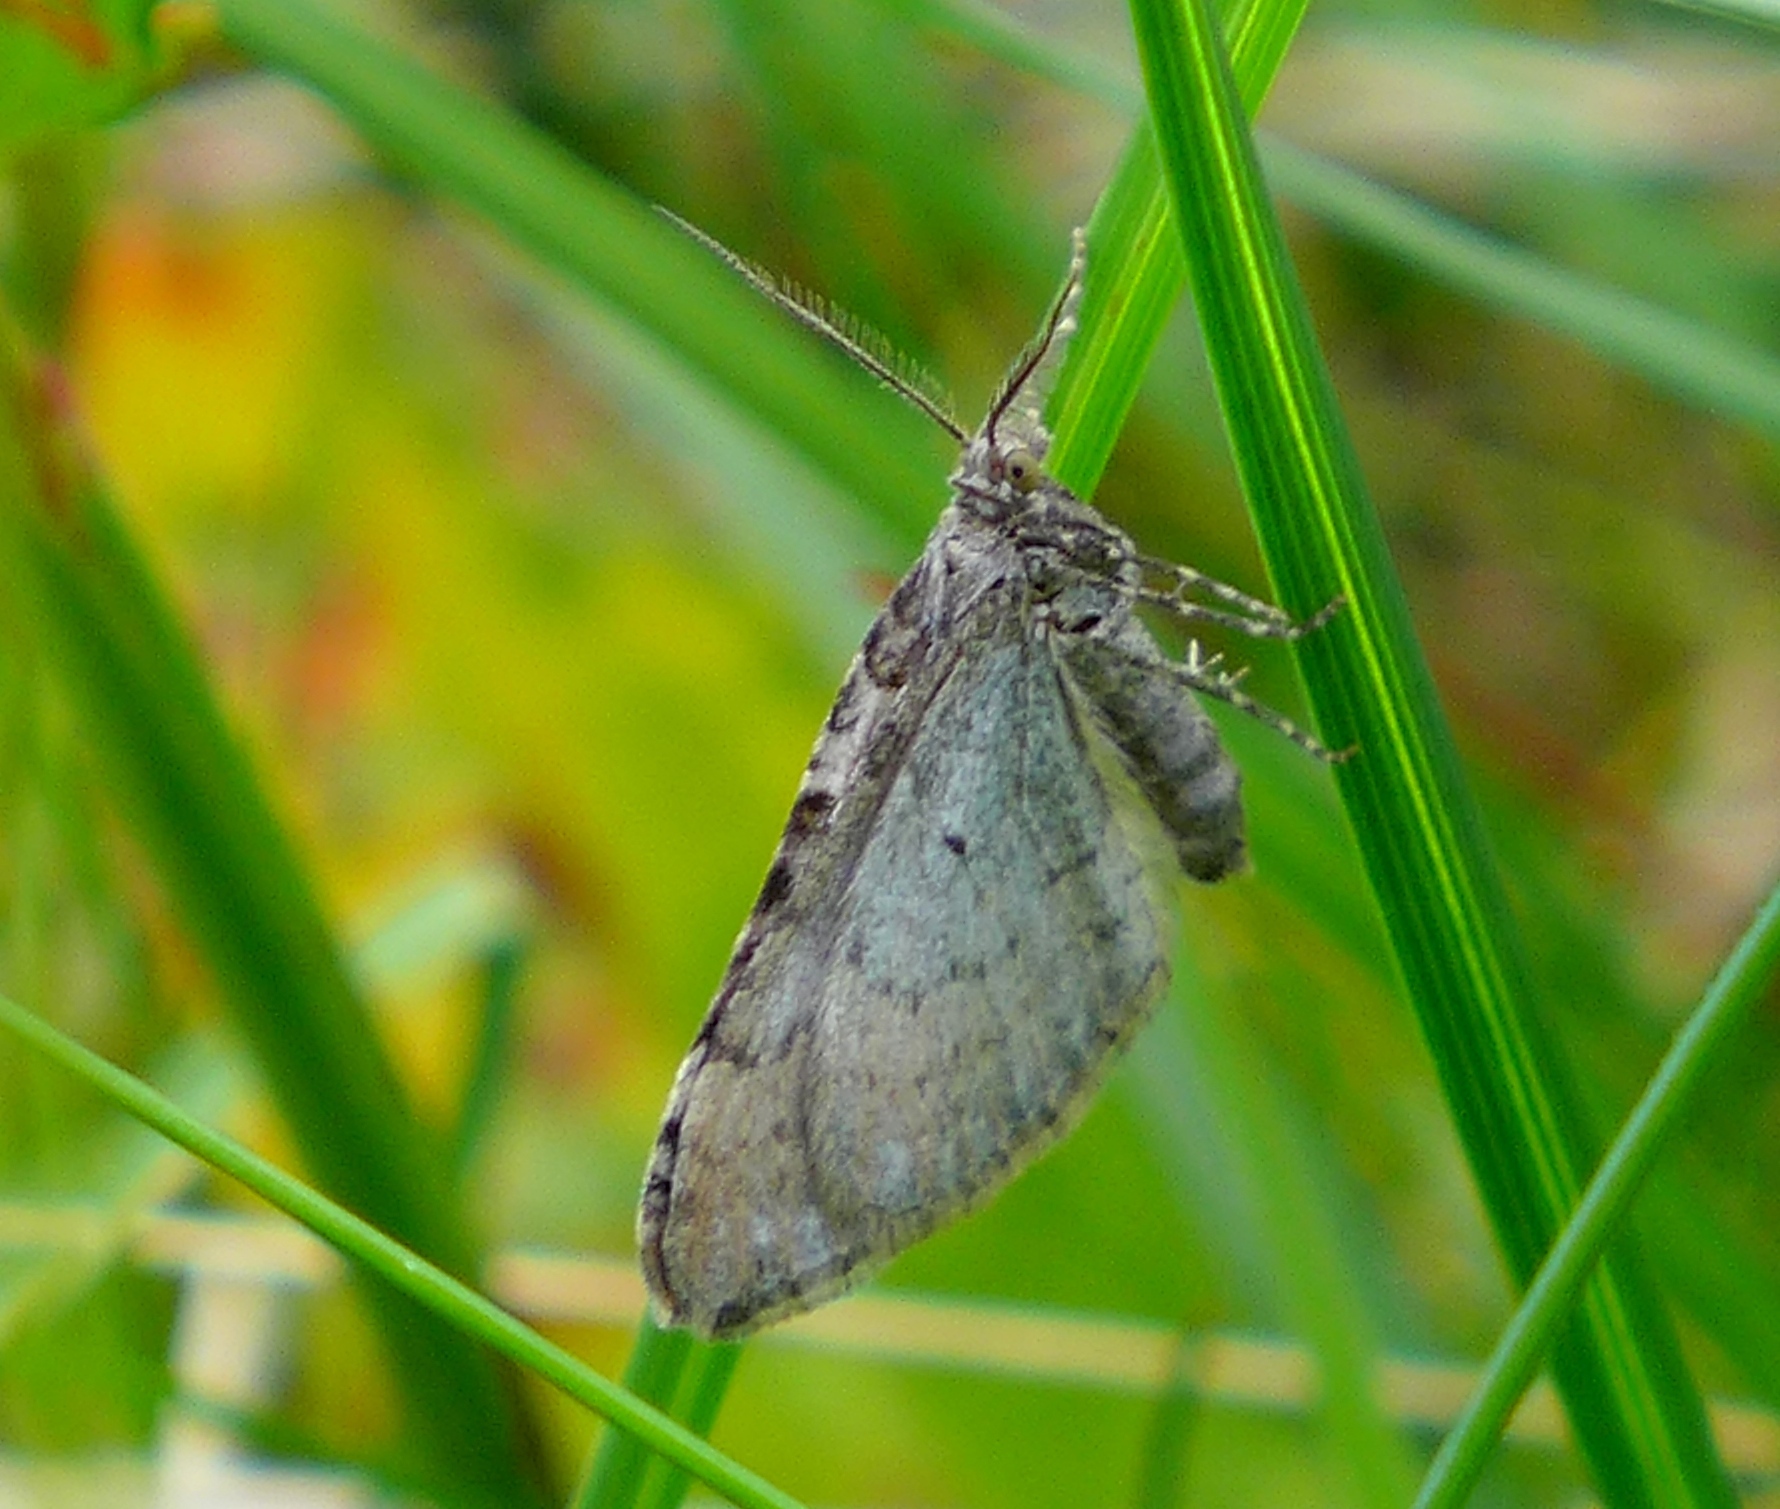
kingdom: Animalia
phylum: Arthropoda
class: Insecta
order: Lepidoptera
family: Geometridae
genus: Xanthorhoe
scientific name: Xanthorhoe decoloraria
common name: Red carpet
